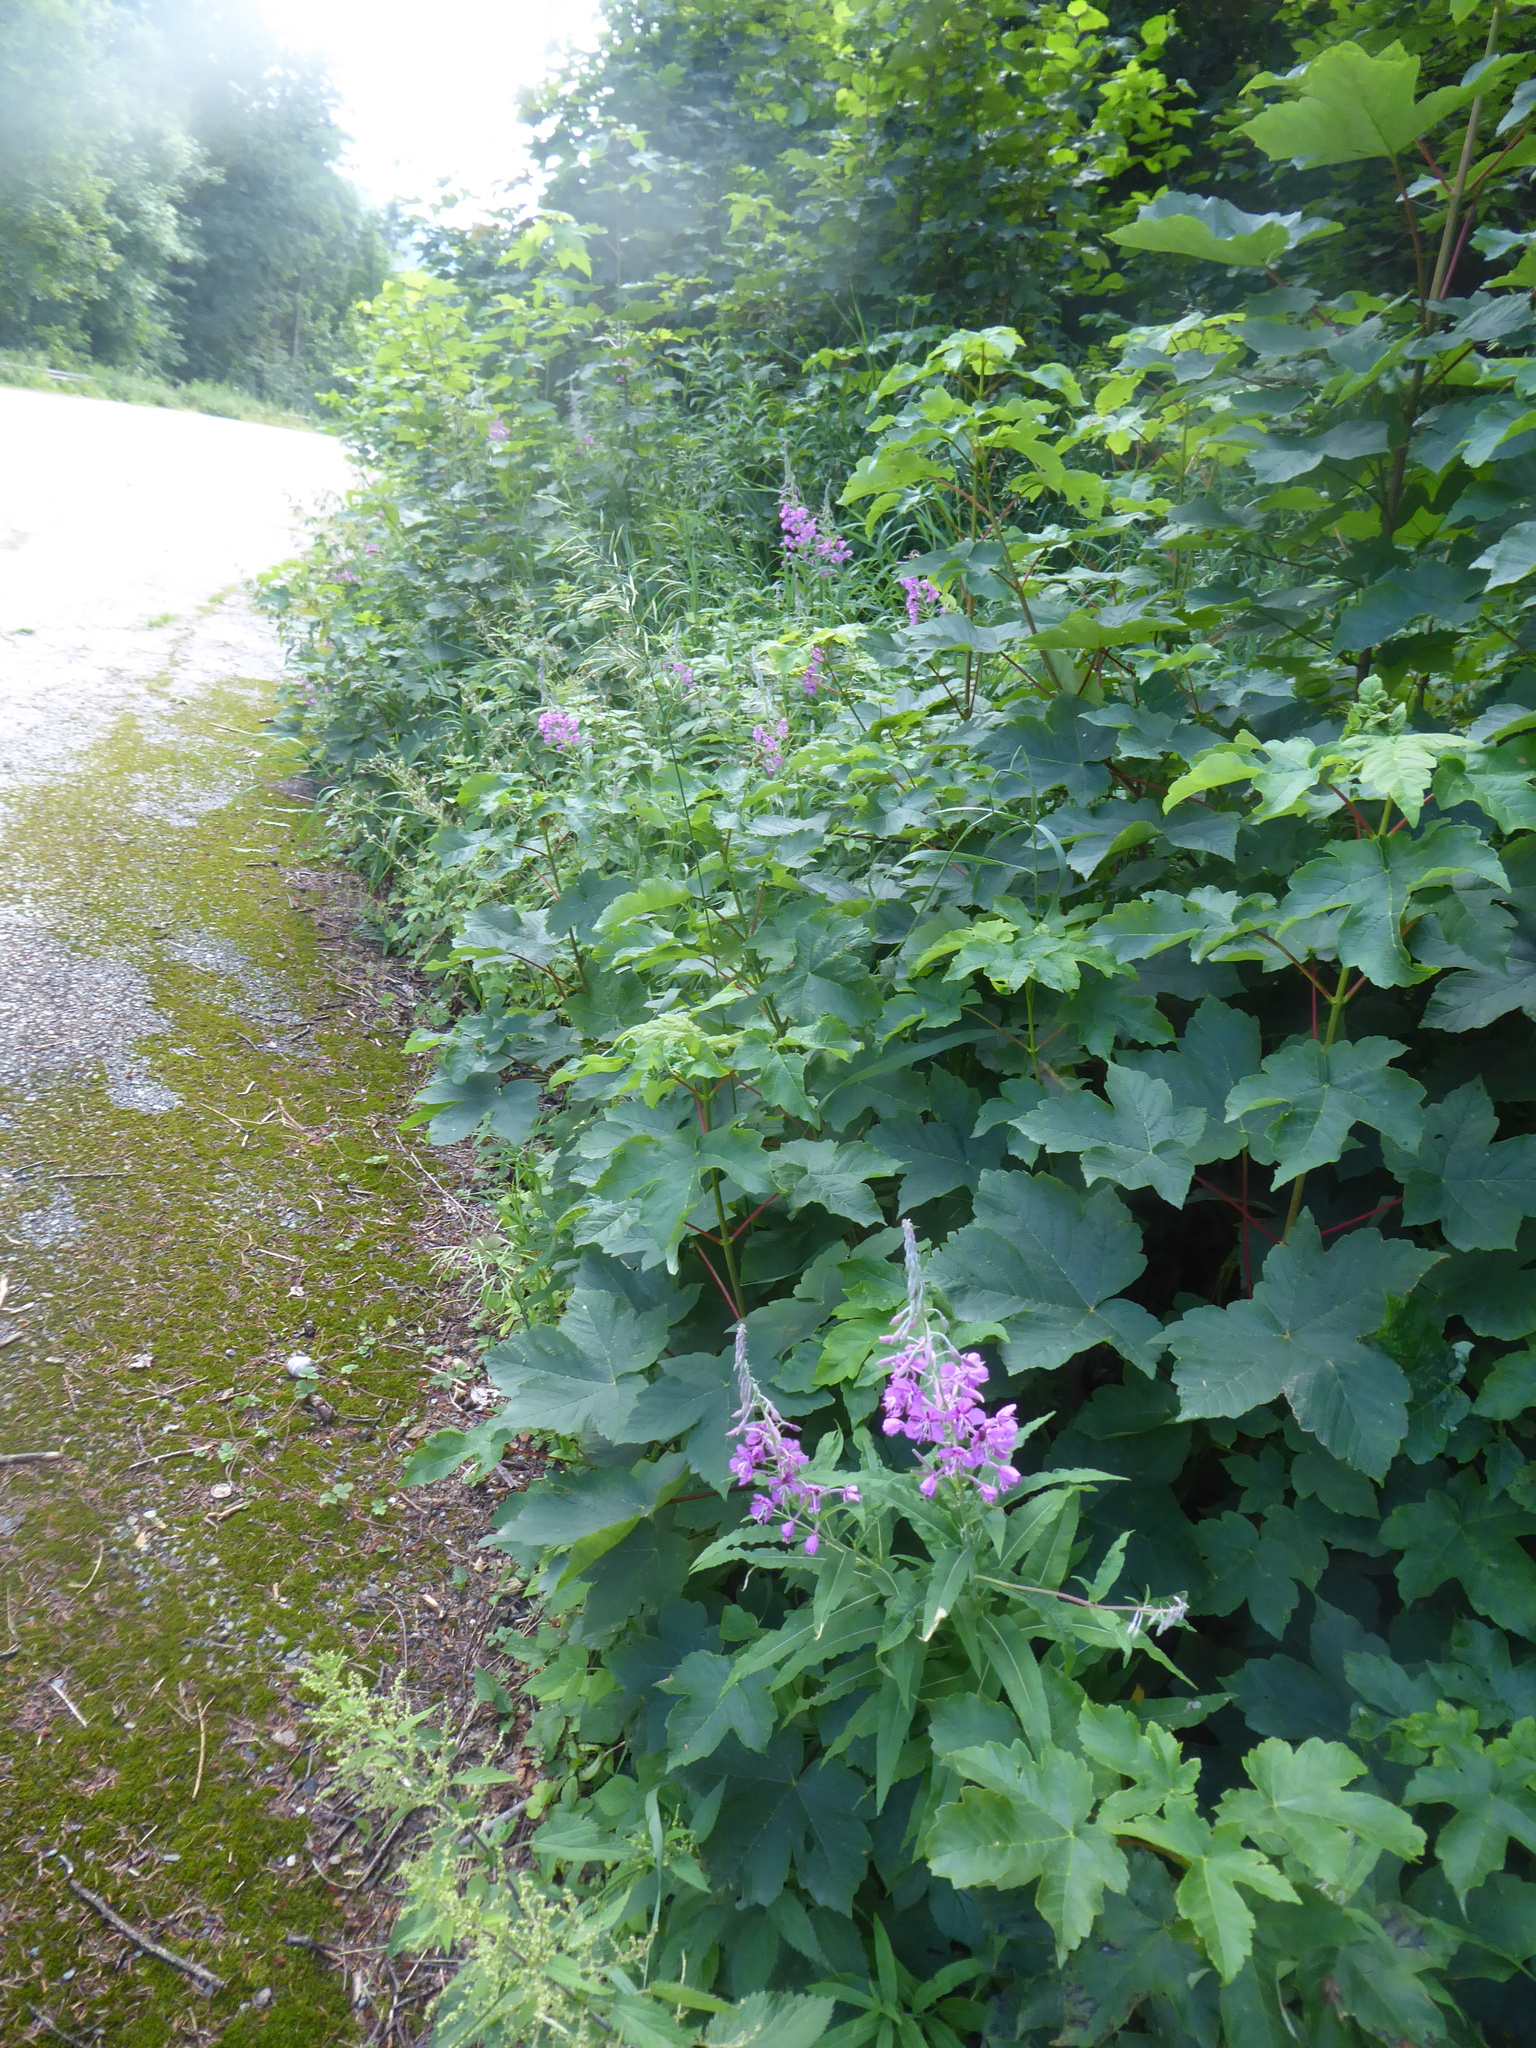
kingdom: Plantae
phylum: Tracheophyta
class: Magnoliopsida
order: Myrtales
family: Onagraceae
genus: Chamaenerion
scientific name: Chamaenerion angustifolium
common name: Fireweed
